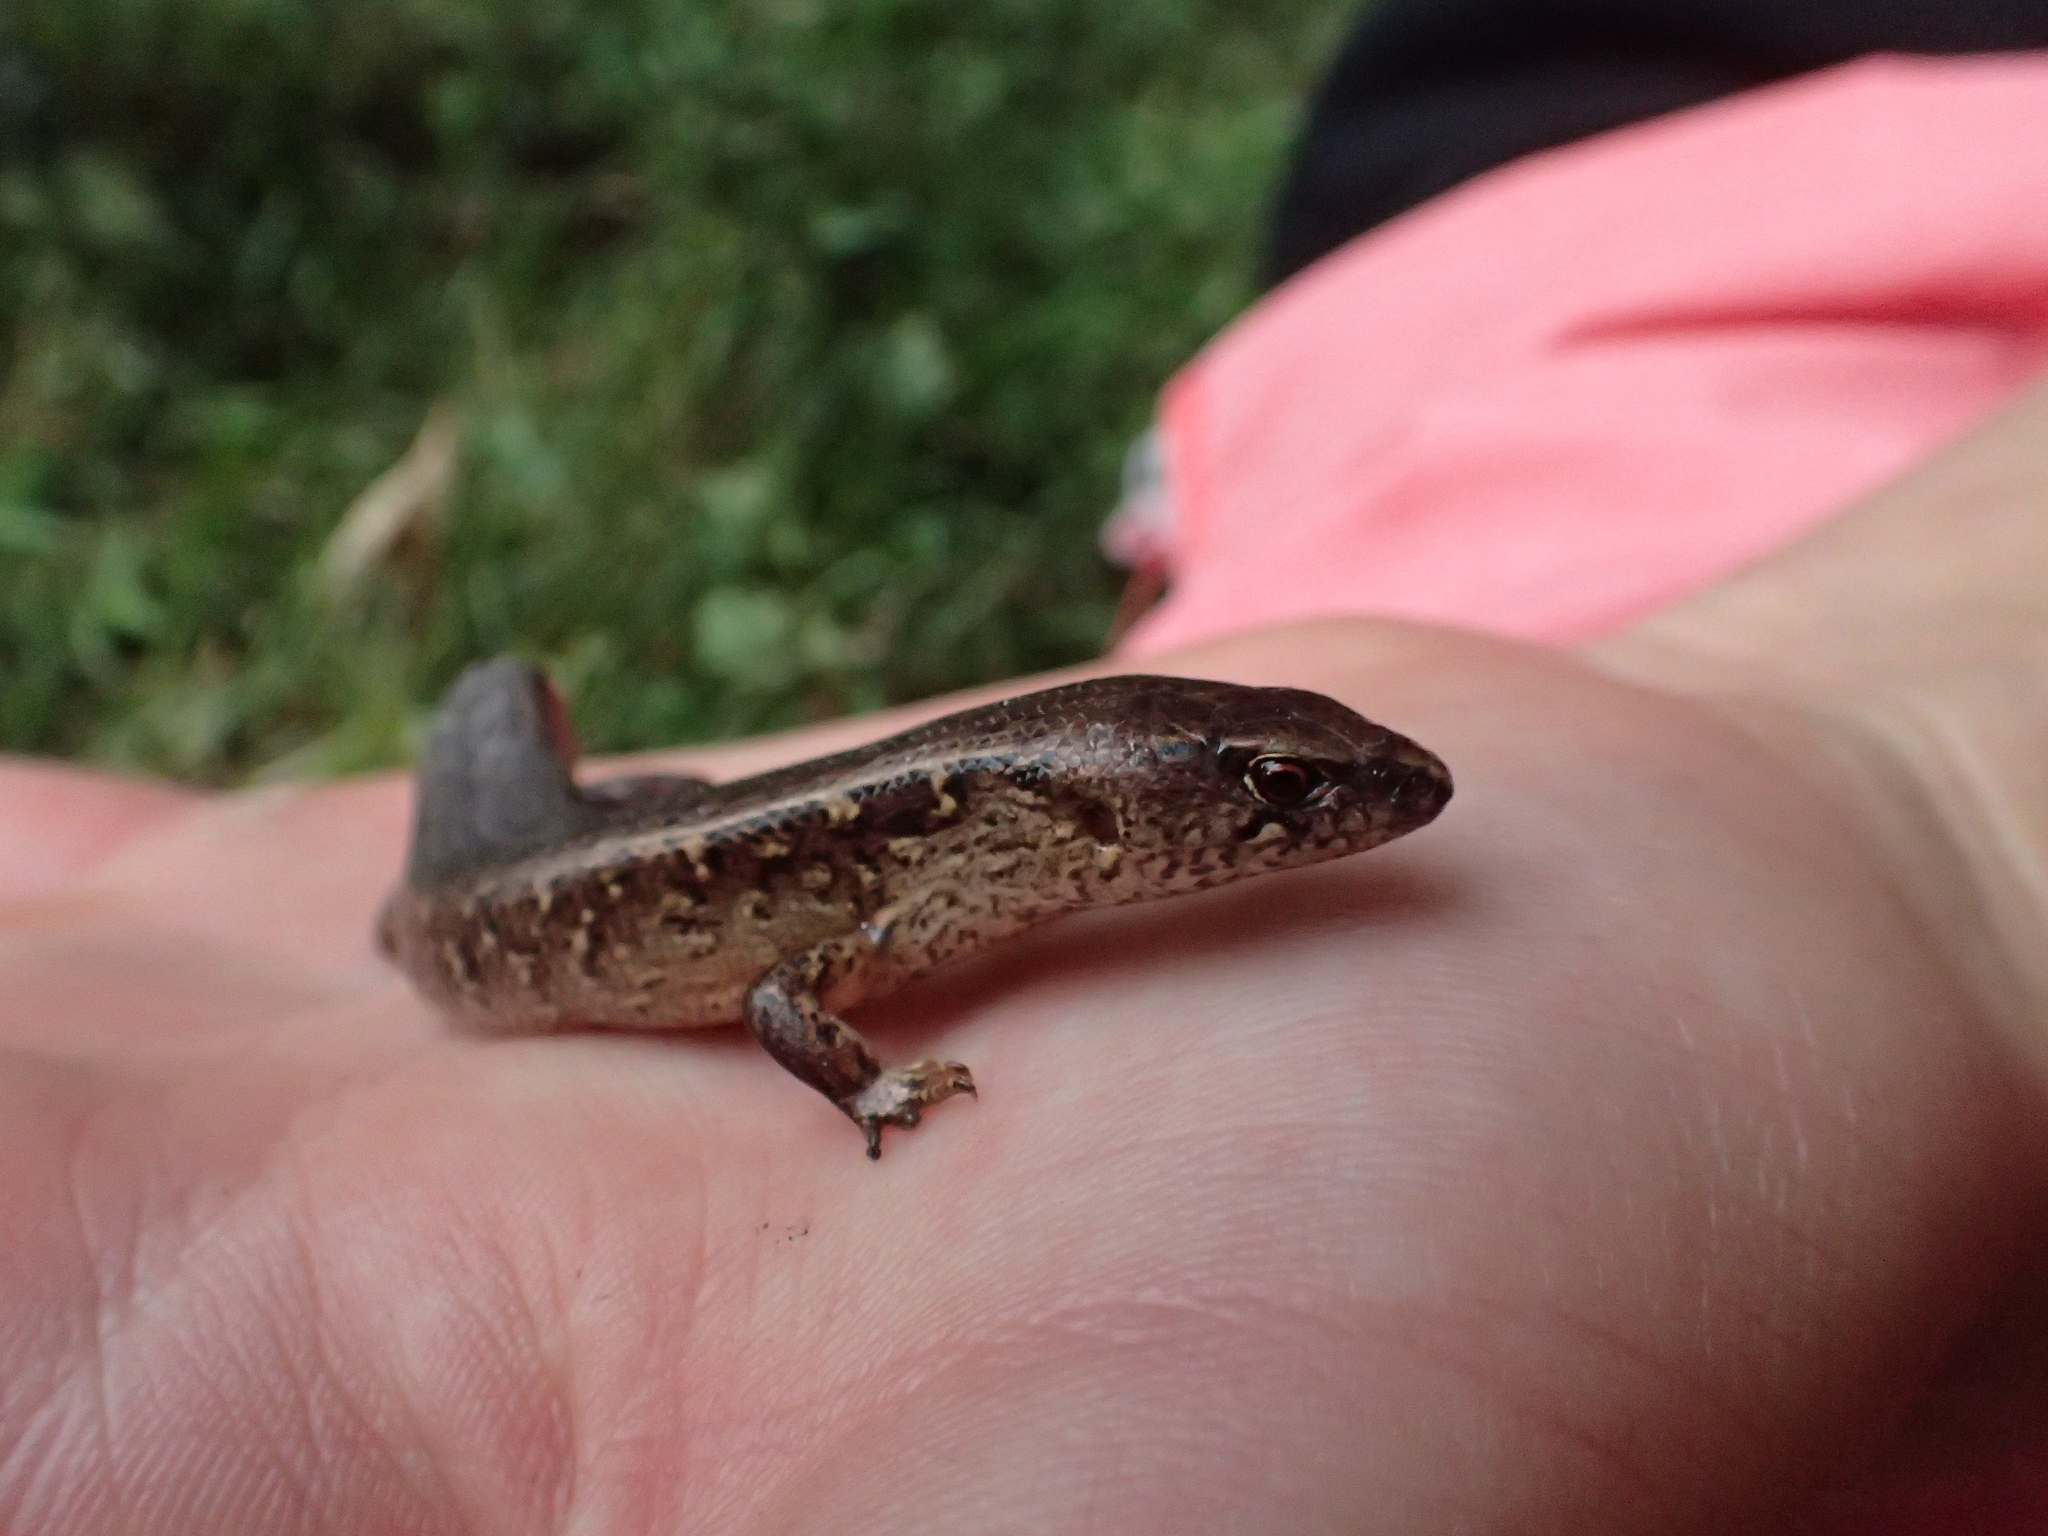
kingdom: Animalia
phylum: Chordata
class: Squamata
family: Scincidae
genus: Oligosoma
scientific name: Oligosoma ornatum
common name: Gray's ornate skink
